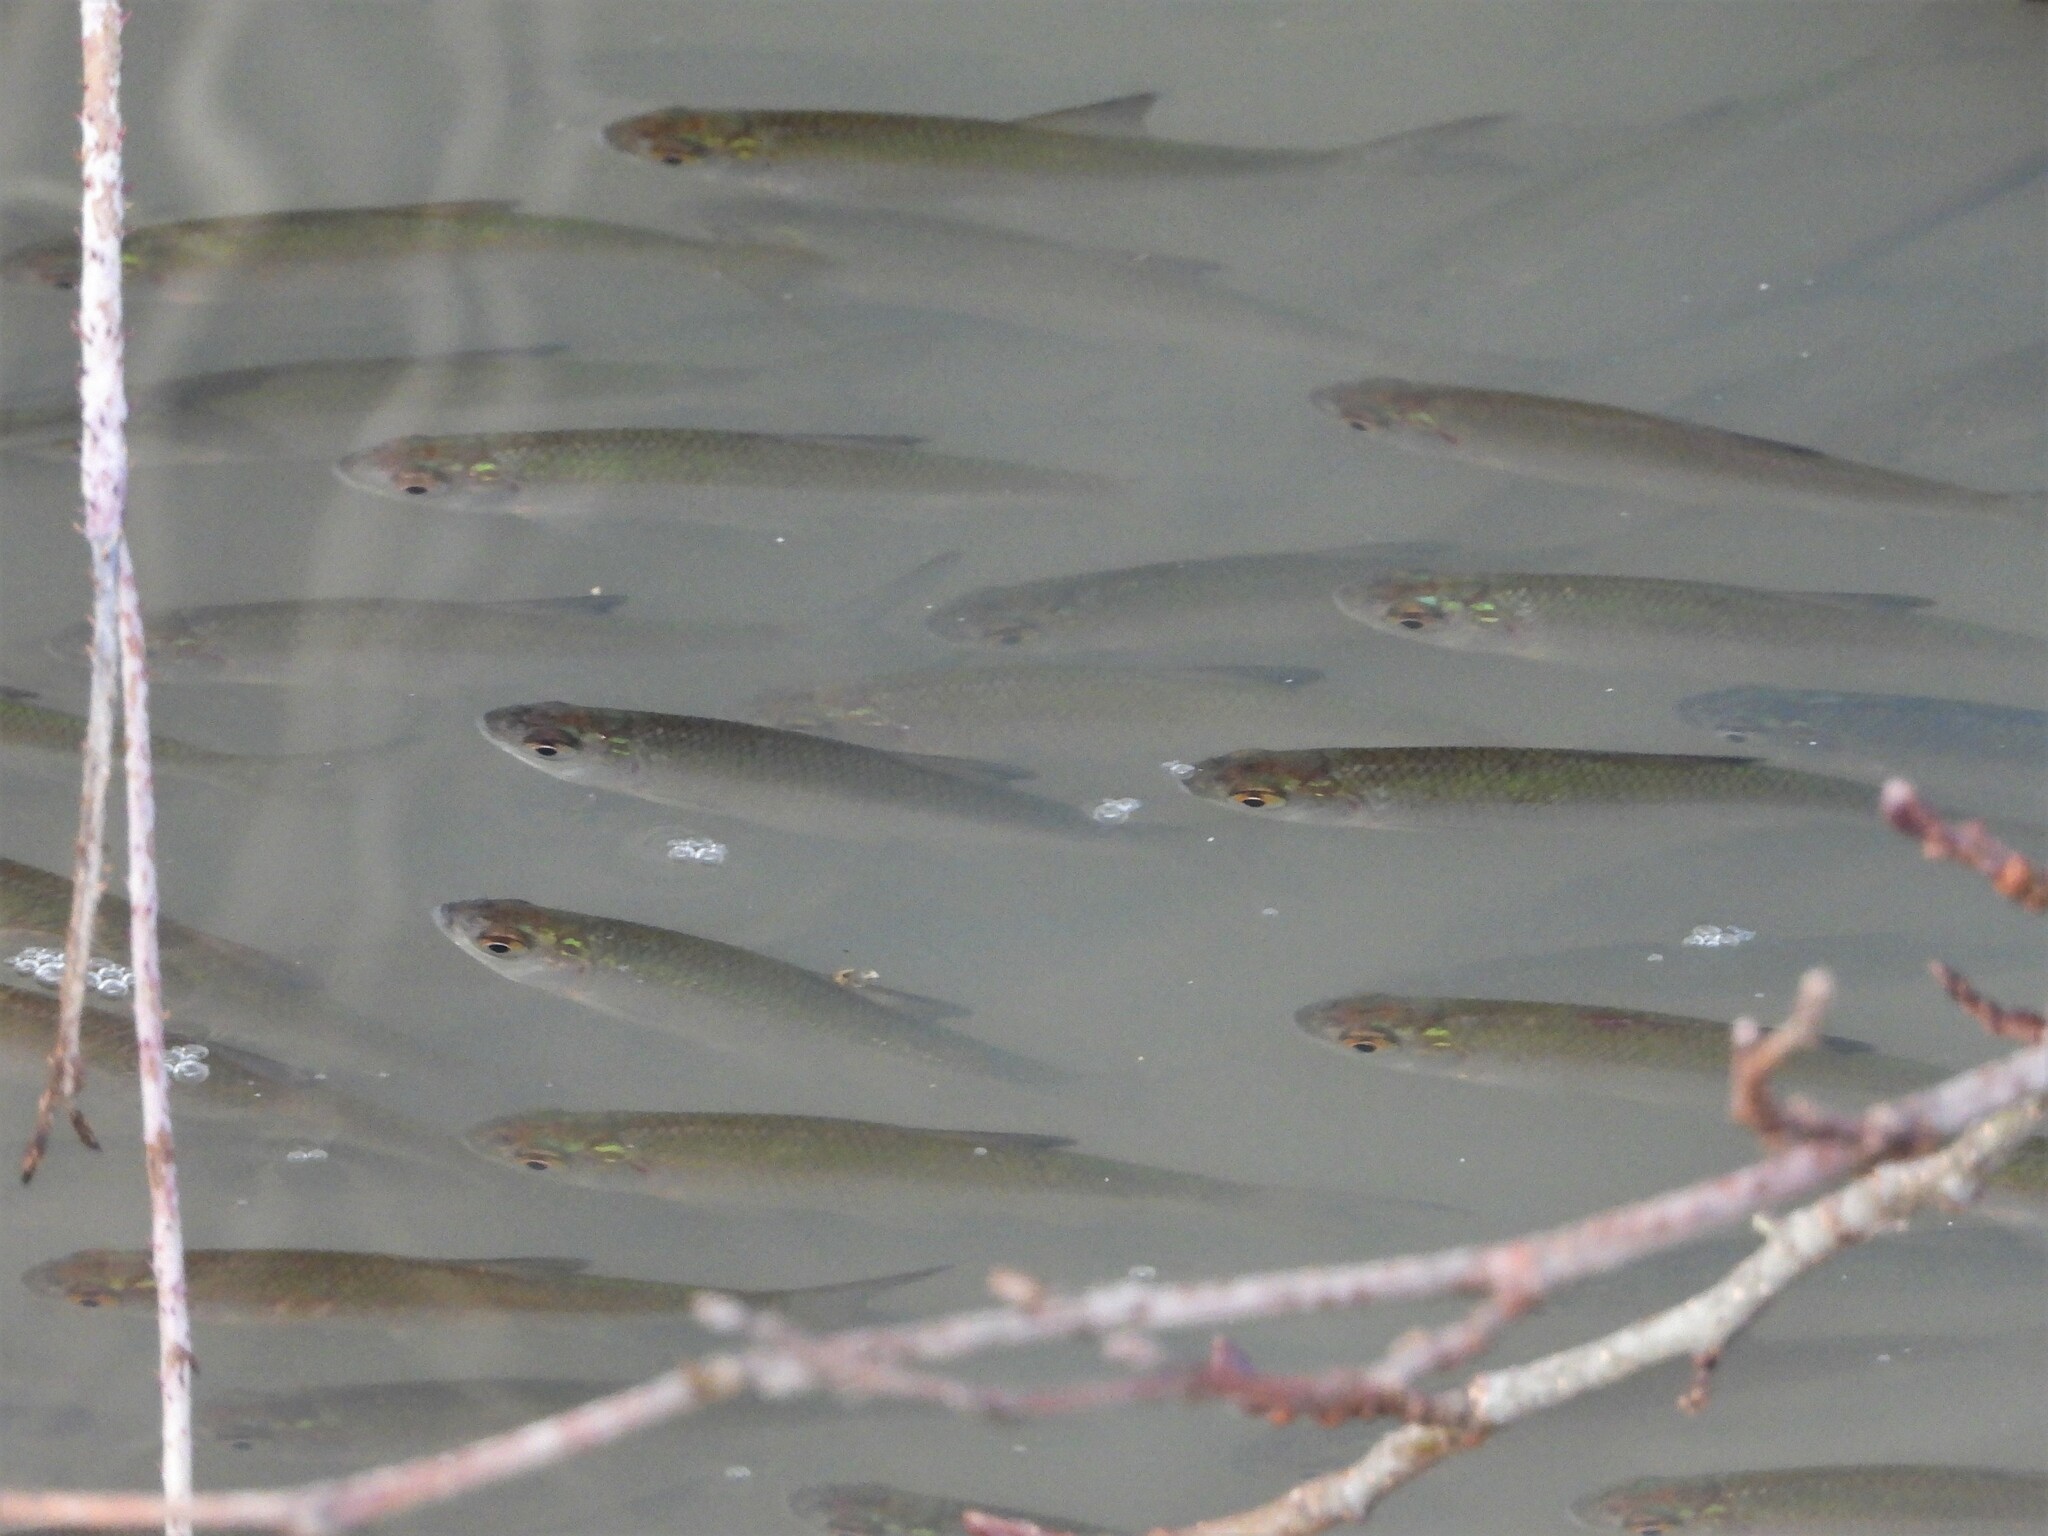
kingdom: Animalia
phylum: Chordata
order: Cypriniformes
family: Cyprinidae
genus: Rutilus
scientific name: Rutilus rutilus
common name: Roach
